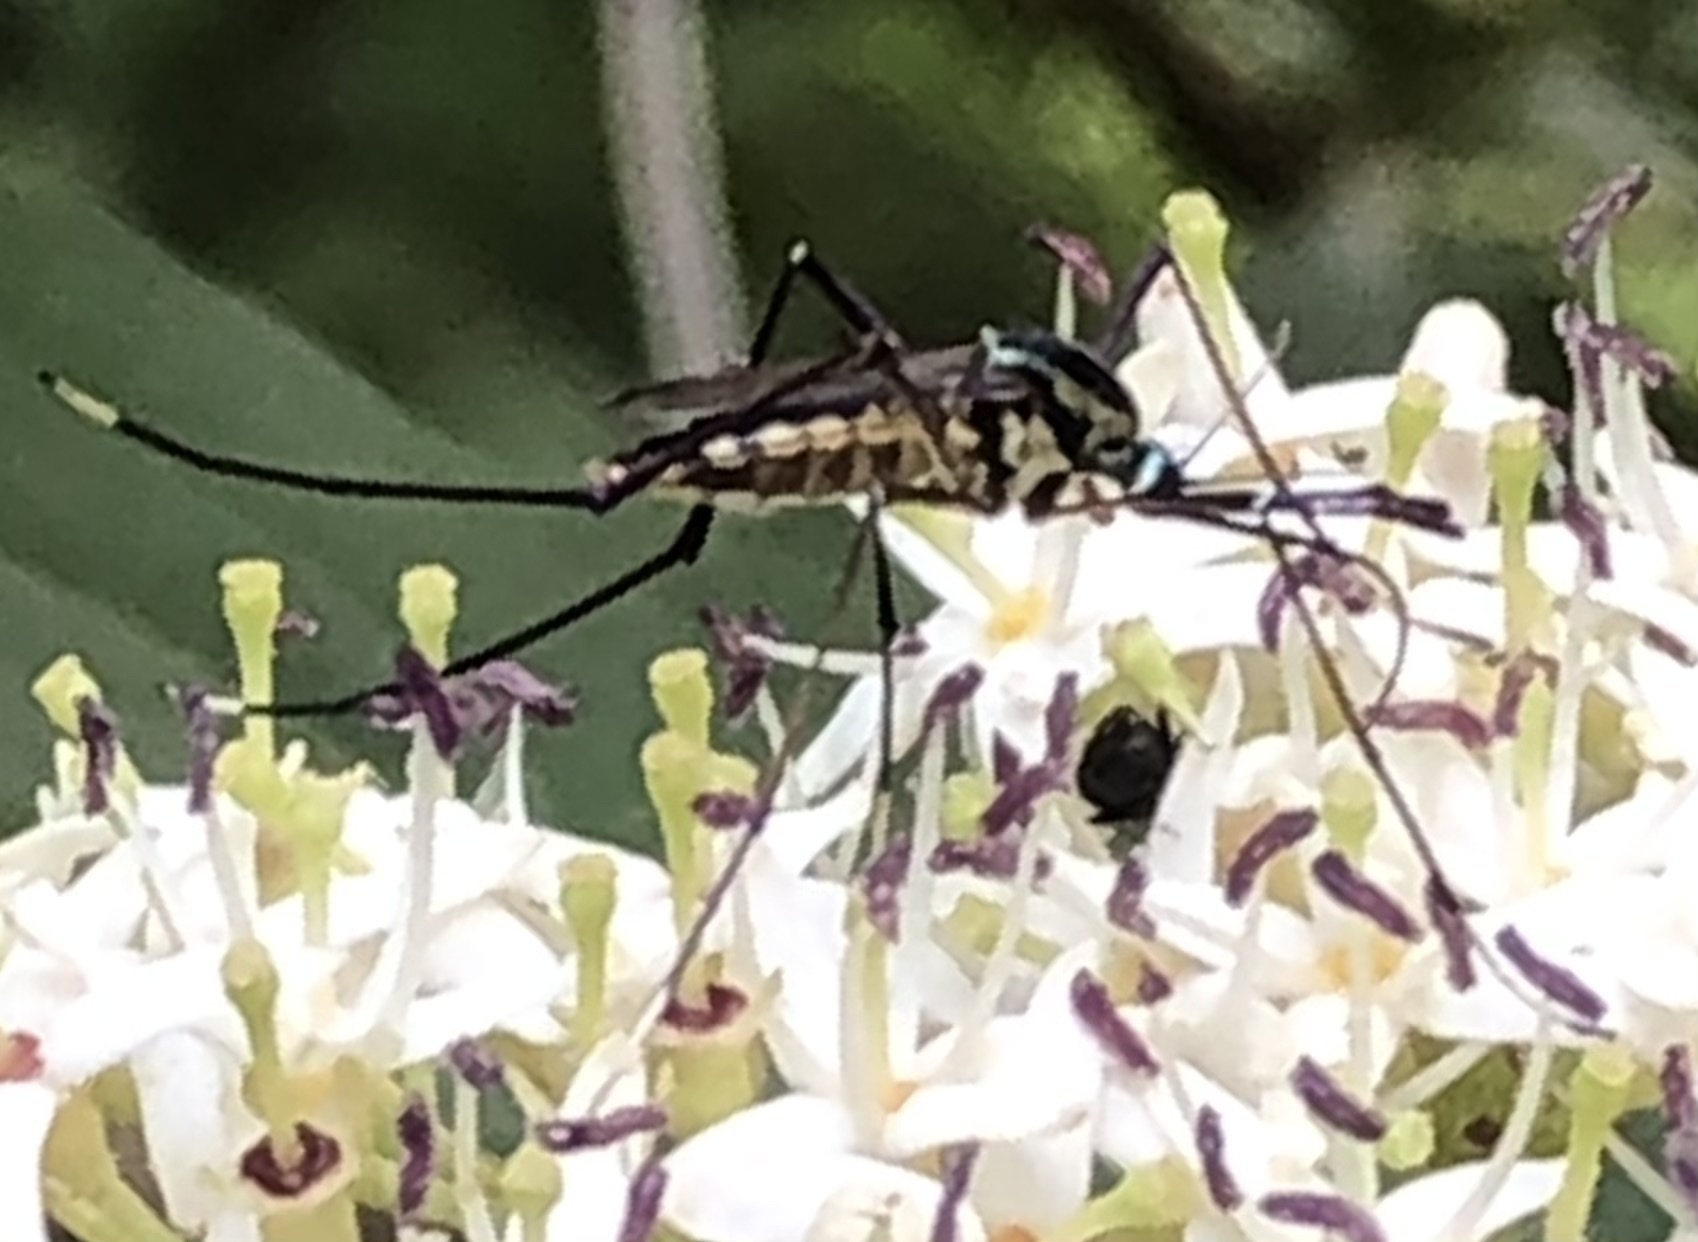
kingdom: Animalia
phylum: Arthropoda
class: Insecta
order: Diptera
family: Culicidae
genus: Toxorhynchites
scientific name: Toxorhynchites rutilus
